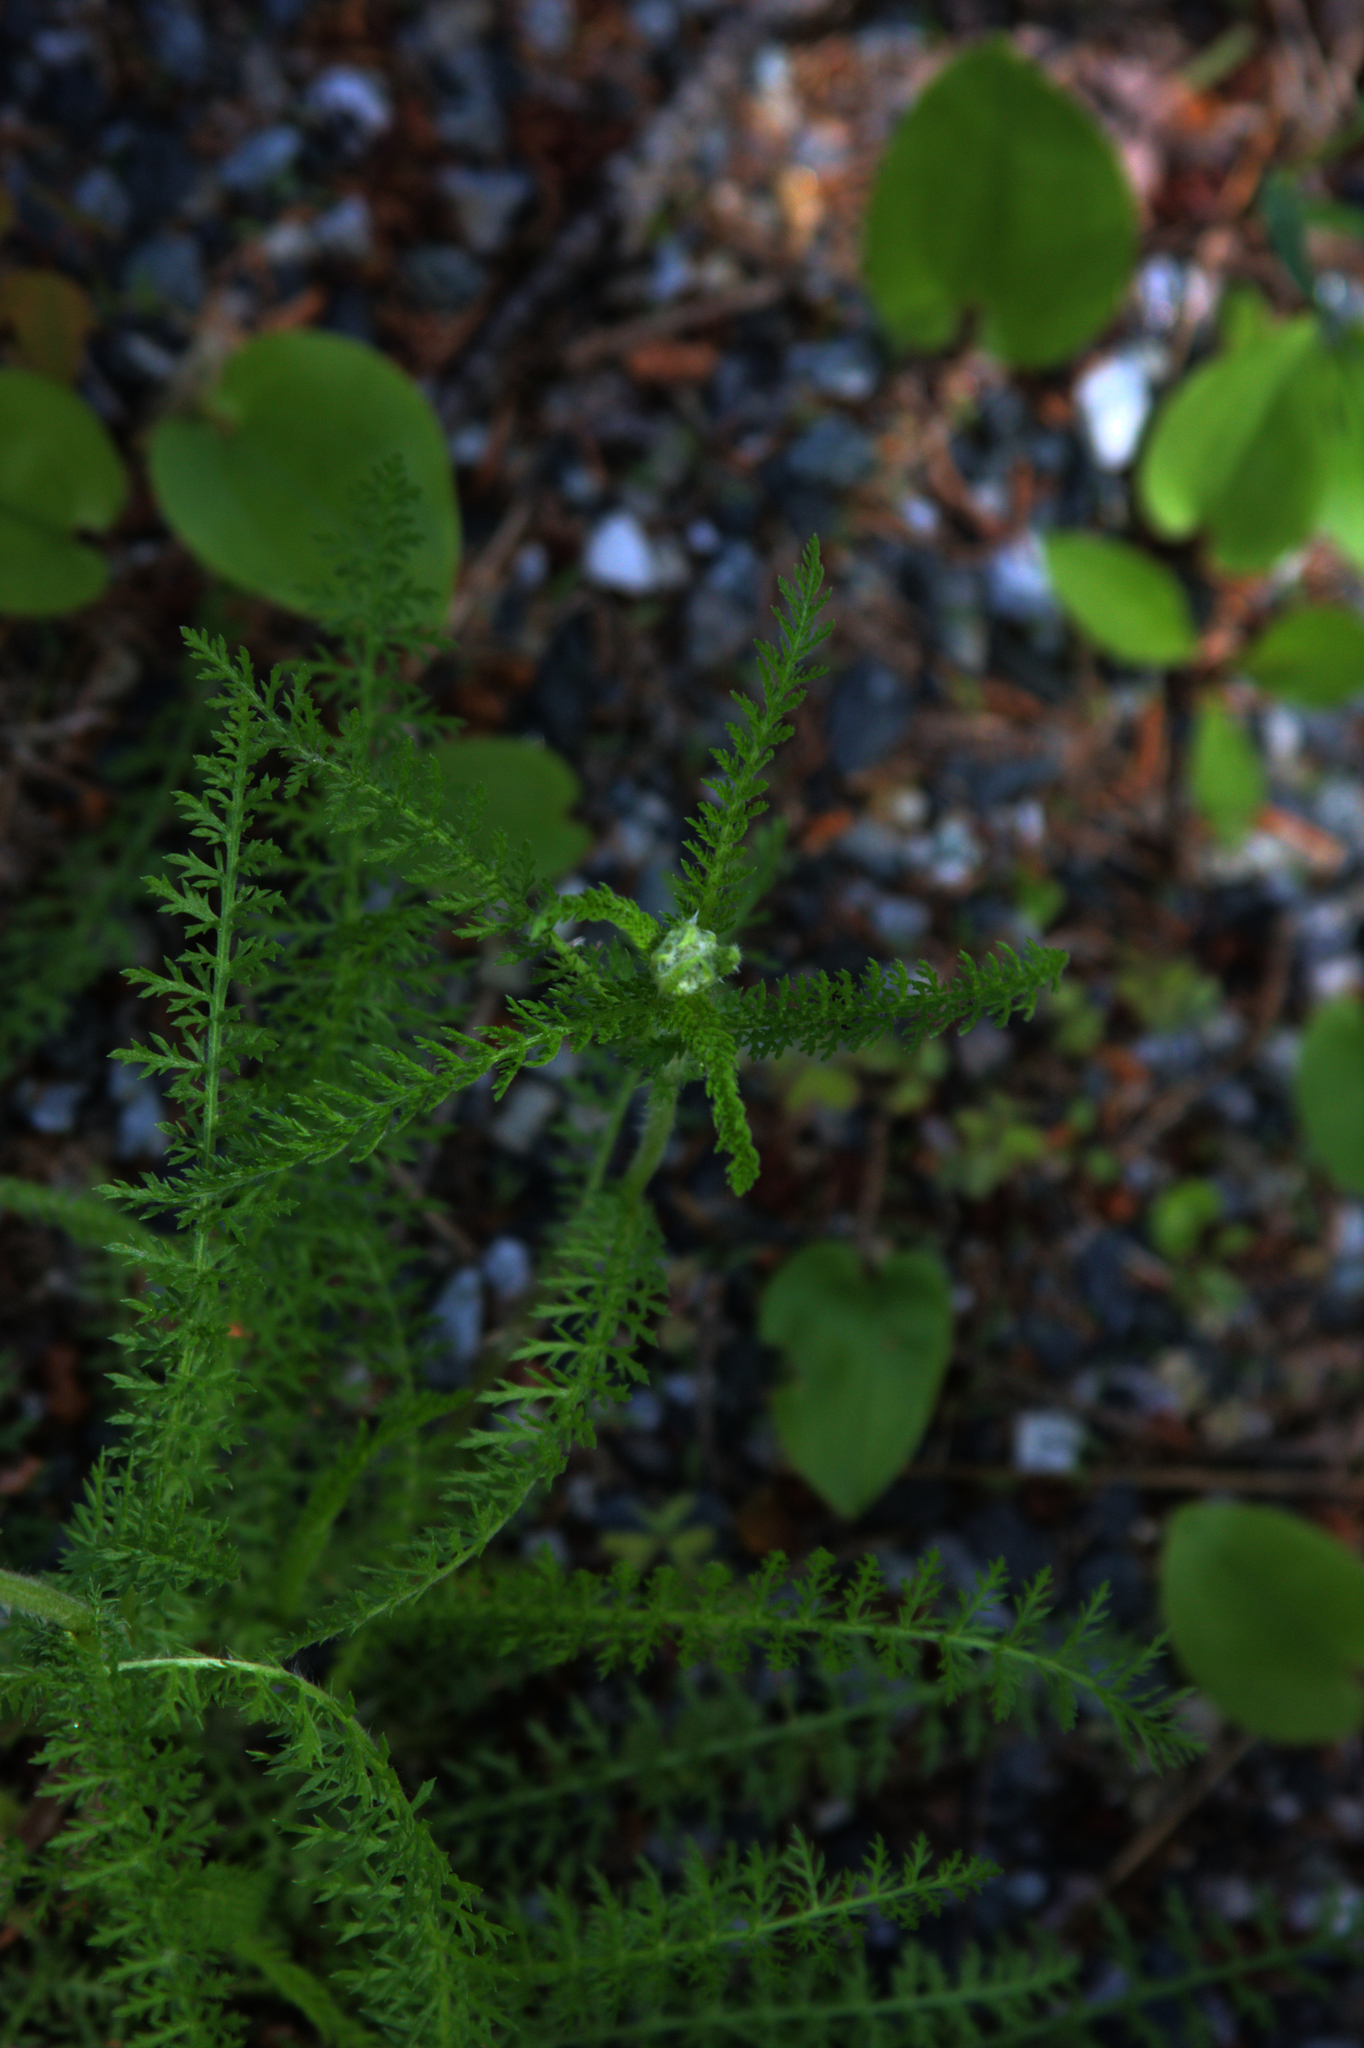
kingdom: Plantae
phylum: Tracheophyta
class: Magnoliopsida
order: Asterales
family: Asteraceae
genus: Achillea
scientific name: Achillea millefolium
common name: Yarrow
